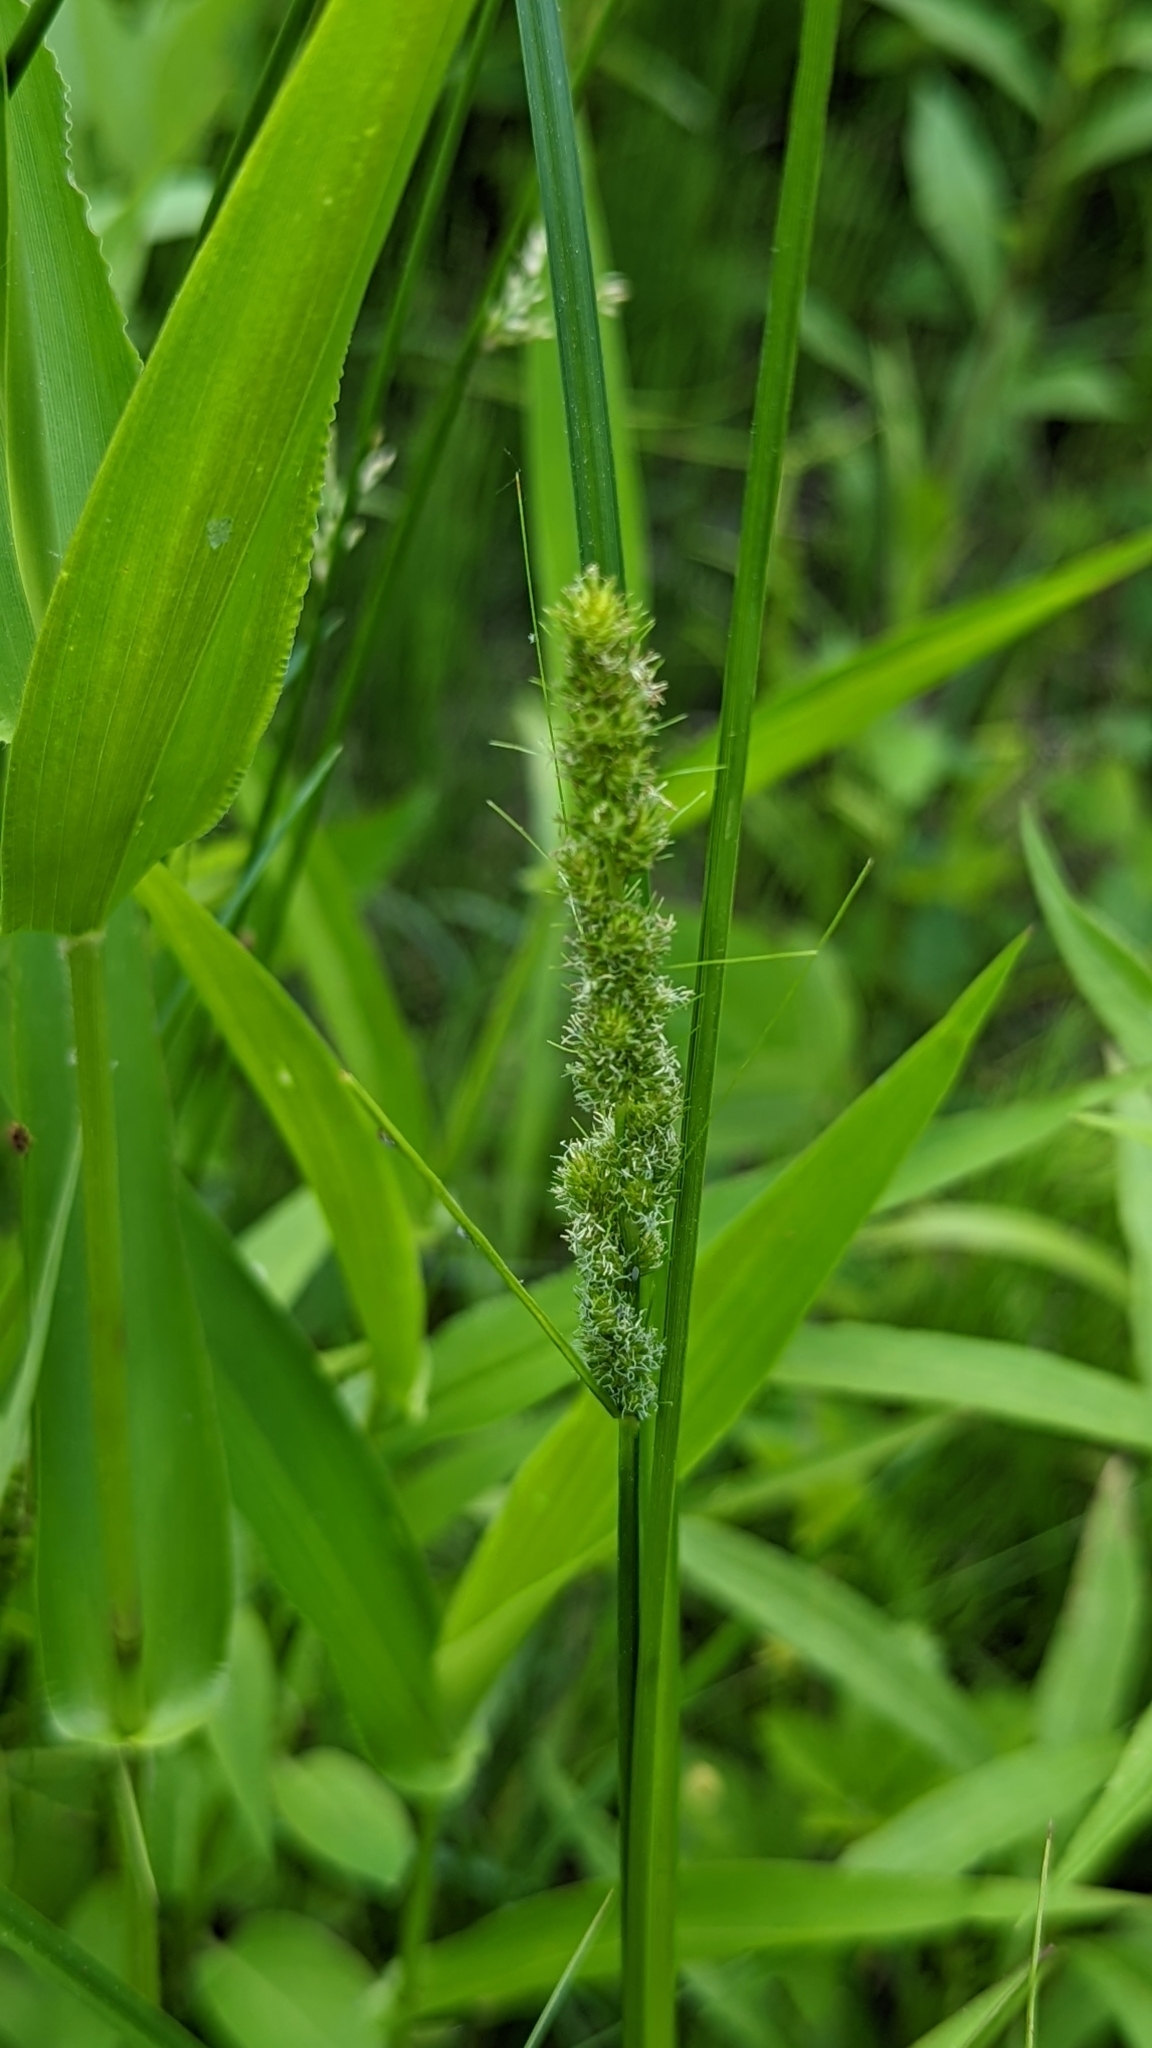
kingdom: Plantae
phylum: Tracheophyta
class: Liliopsida
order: Poales
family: Cyperaceae
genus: Carex
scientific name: Carex vulpinoidea
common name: American fox-sedge
